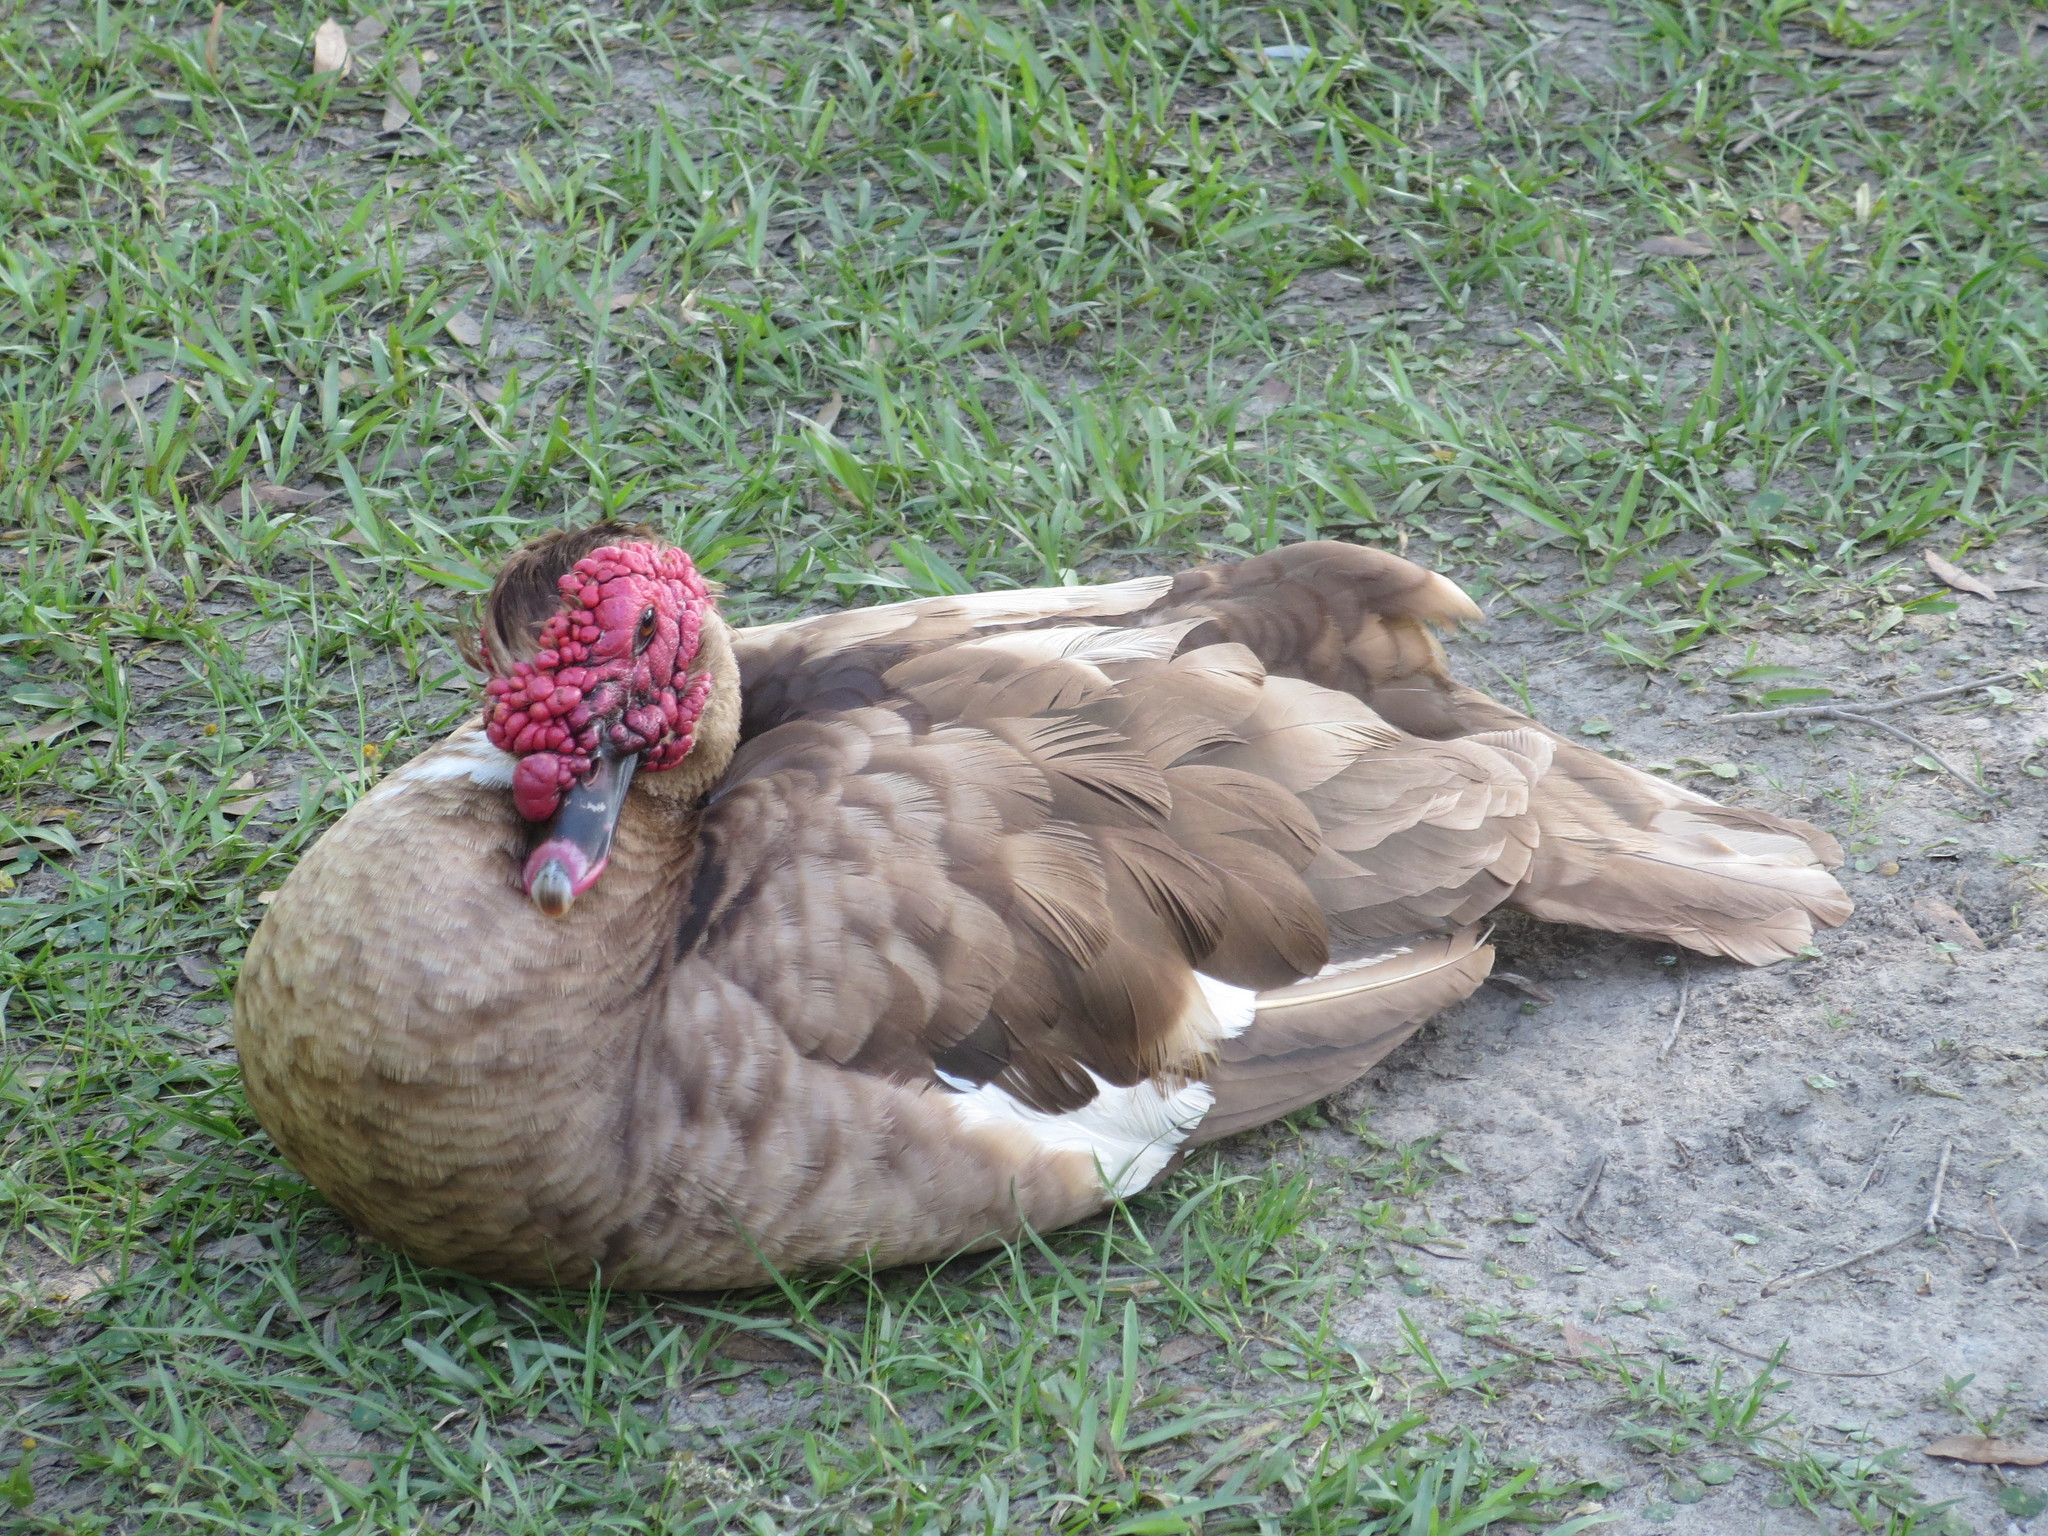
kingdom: Animalia
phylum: Chordata
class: Aves
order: Anseriformes
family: Anatidae
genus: Cairina
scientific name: Cairina moschata
